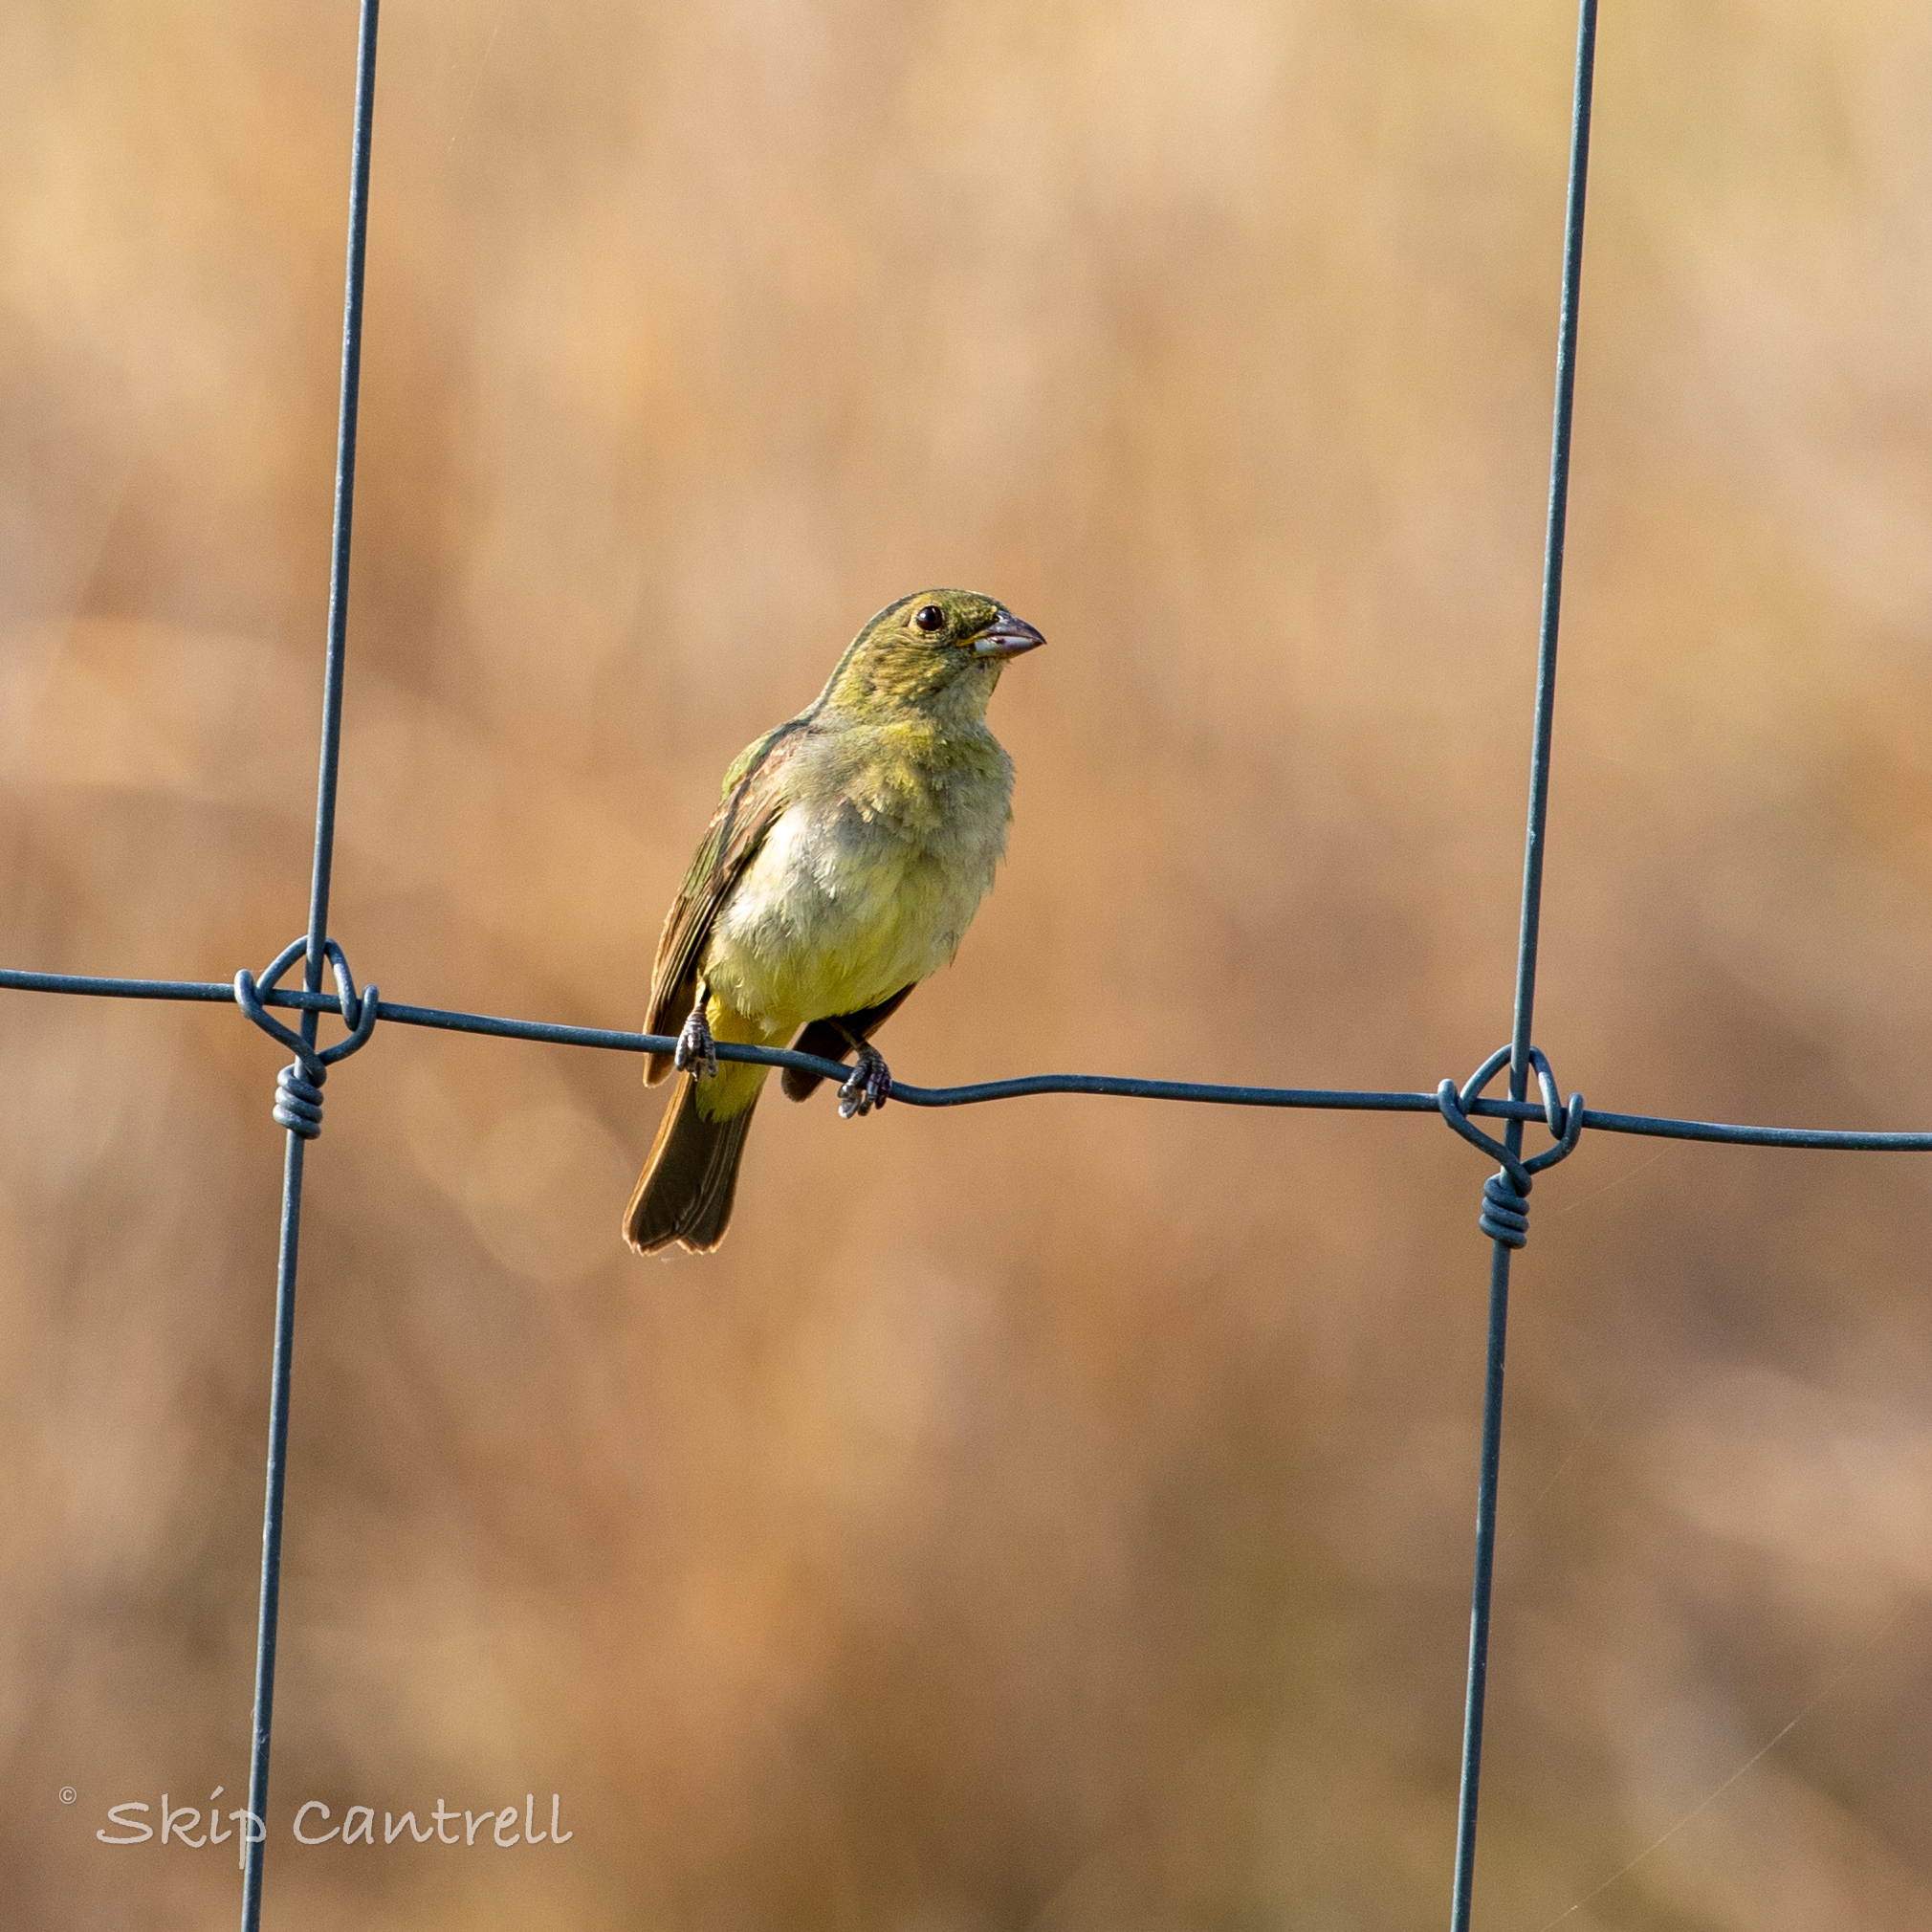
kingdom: Animalia
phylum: Chordata
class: Aves
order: Passeriformes
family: Cardinalidae
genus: Passerina
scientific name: Passerina ciris
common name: Painted bunting
